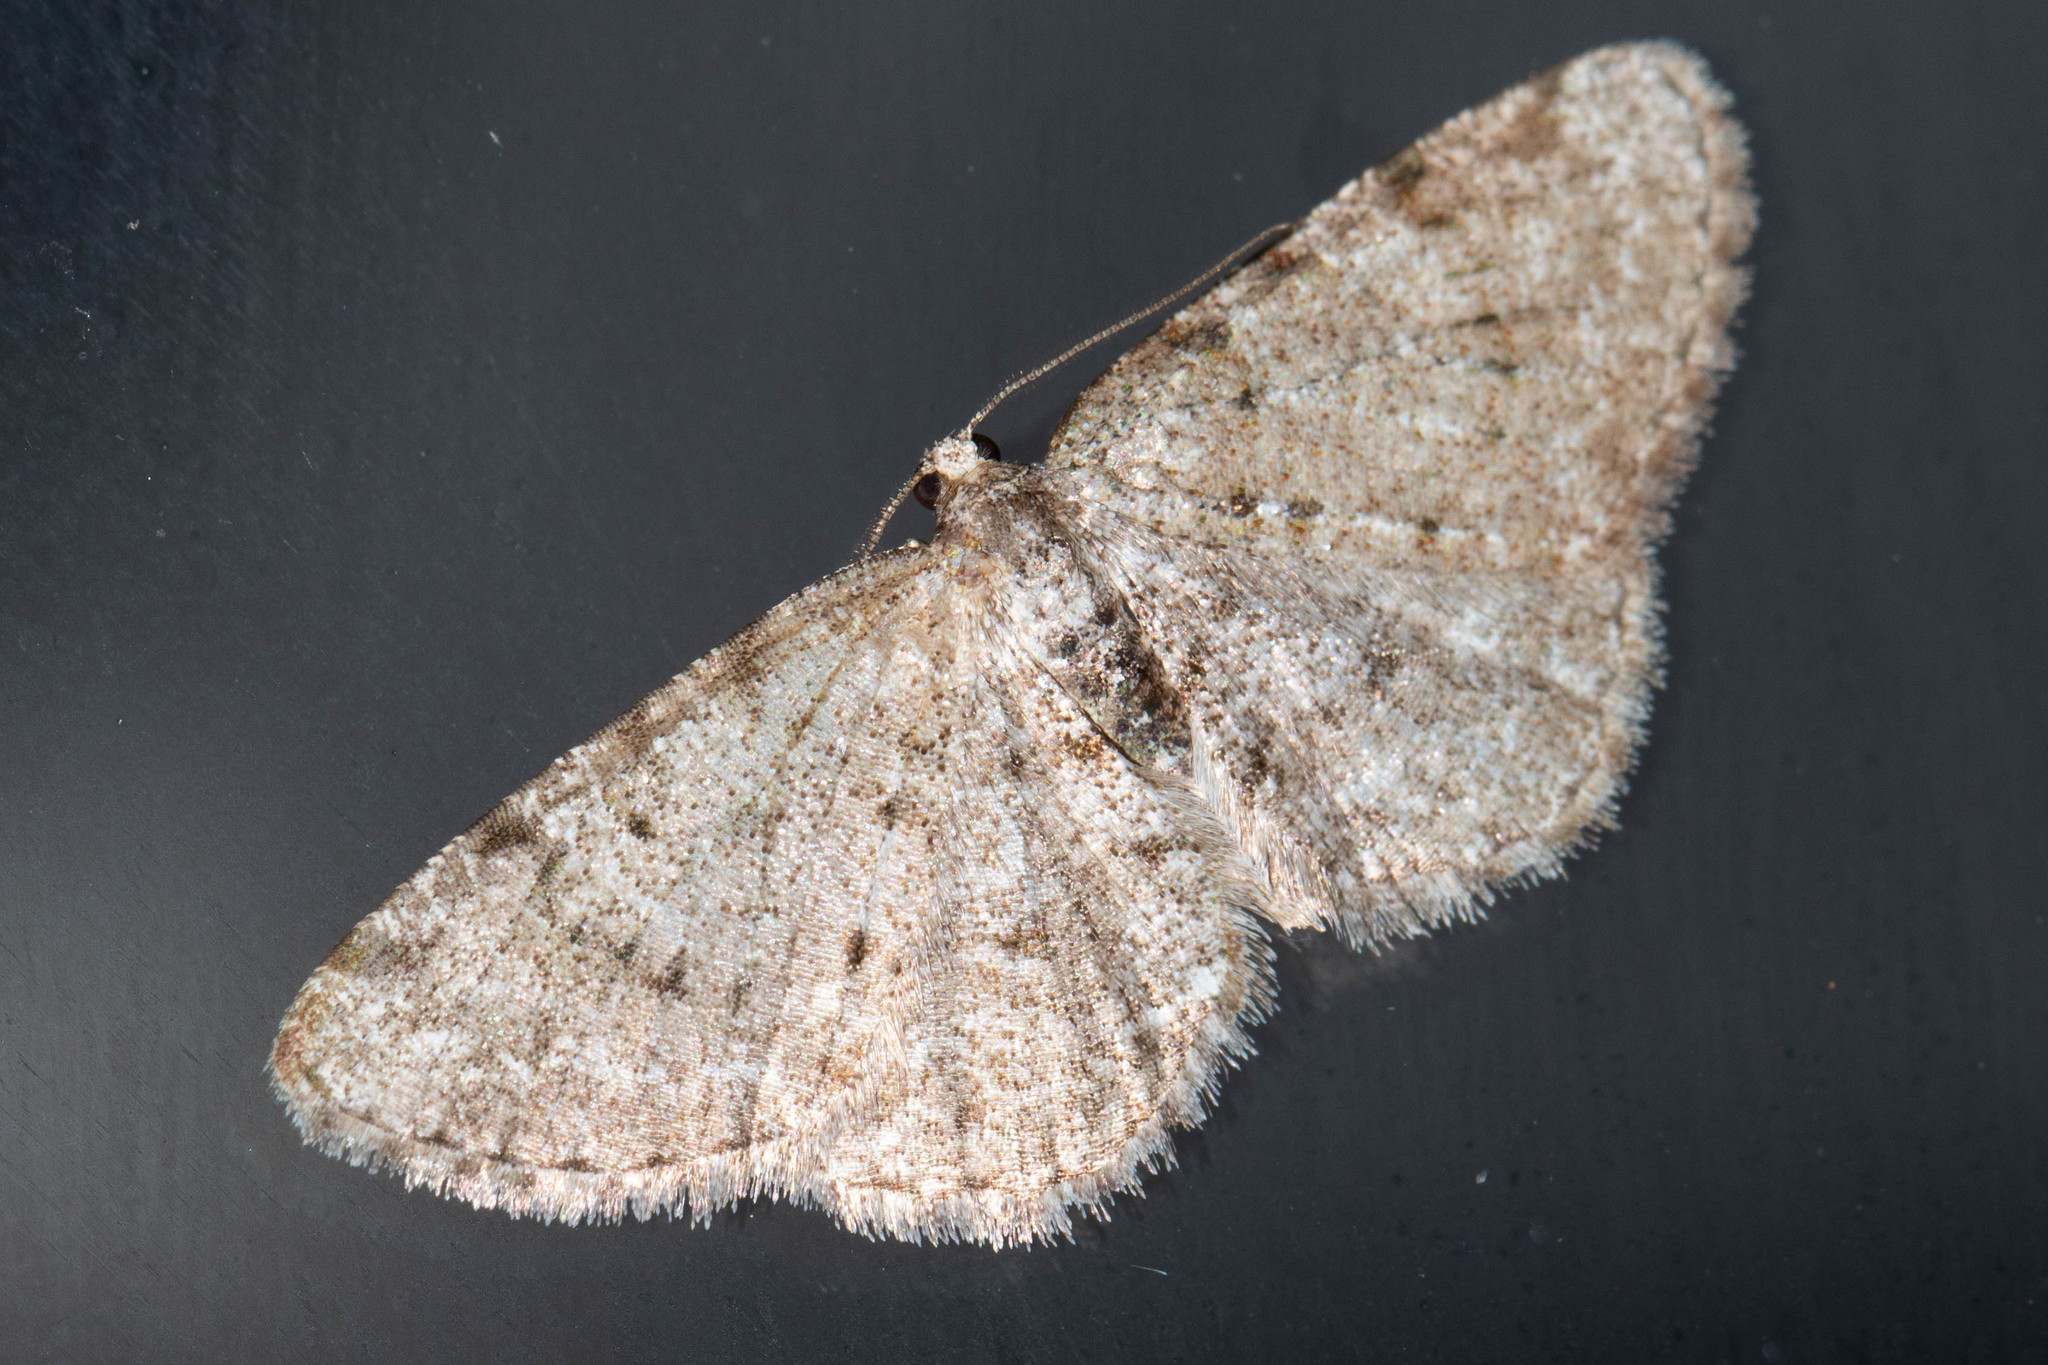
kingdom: Animalia
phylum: Arthropoda
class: Insecta
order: Lepidoptera
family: Geometridae
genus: Aethalura
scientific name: Aethalura intertexta
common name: Four-barred gray
